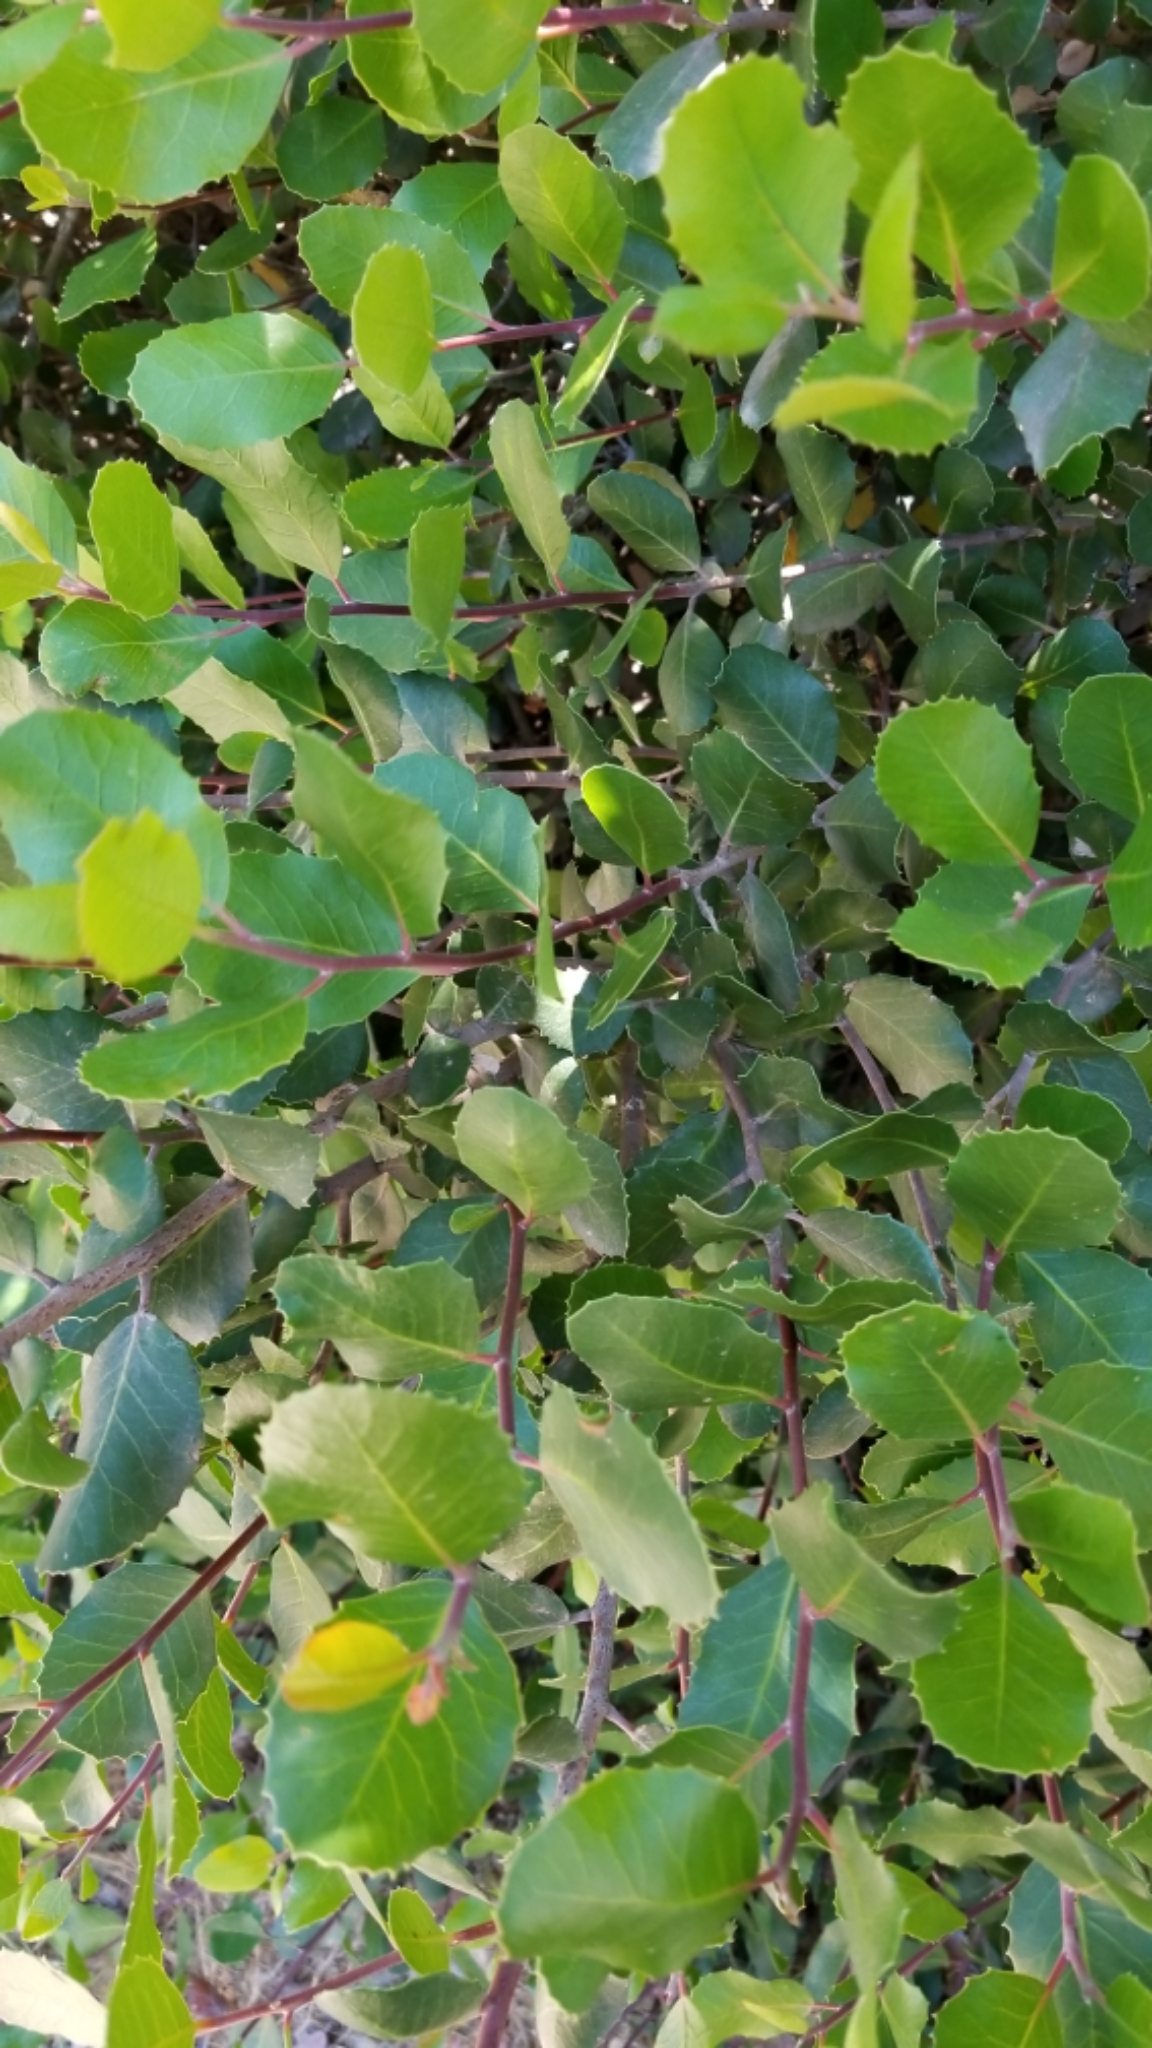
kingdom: Plantae
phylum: Tracheophyta
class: Magnoliopsida
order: Sapindales
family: Anacardiaceae
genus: Rhus
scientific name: Rhus integrifolia
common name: Lemonade sumac
